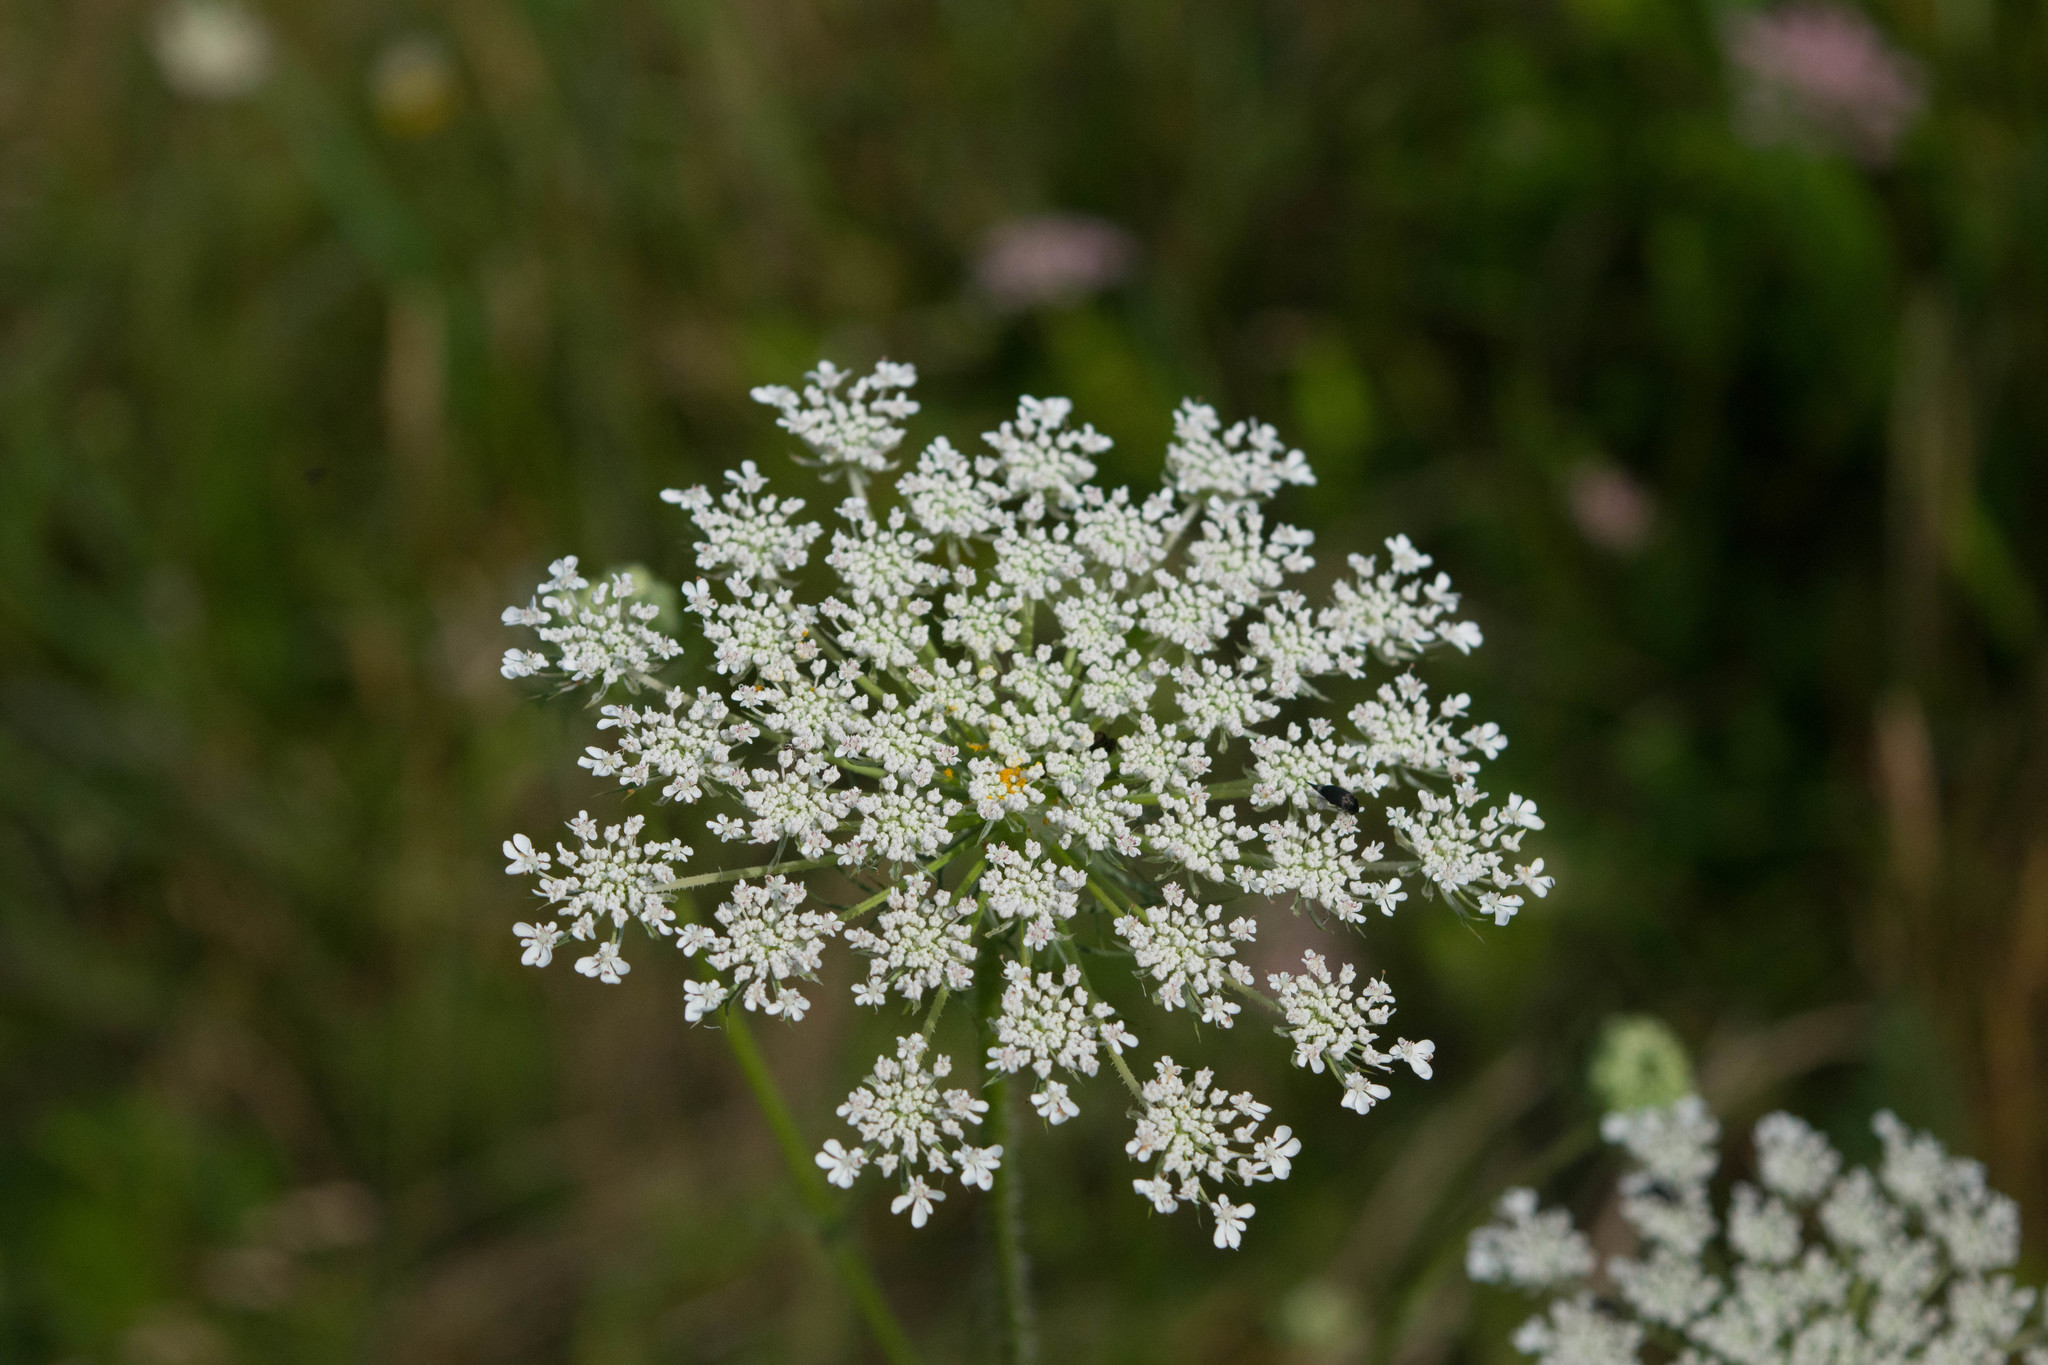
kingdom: Plantae
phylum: Tracheophyta
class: Magnoliopsida
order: Apiales
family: Apiaceae
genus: Daucus
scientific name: Daucus carota
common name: Wild carrot
